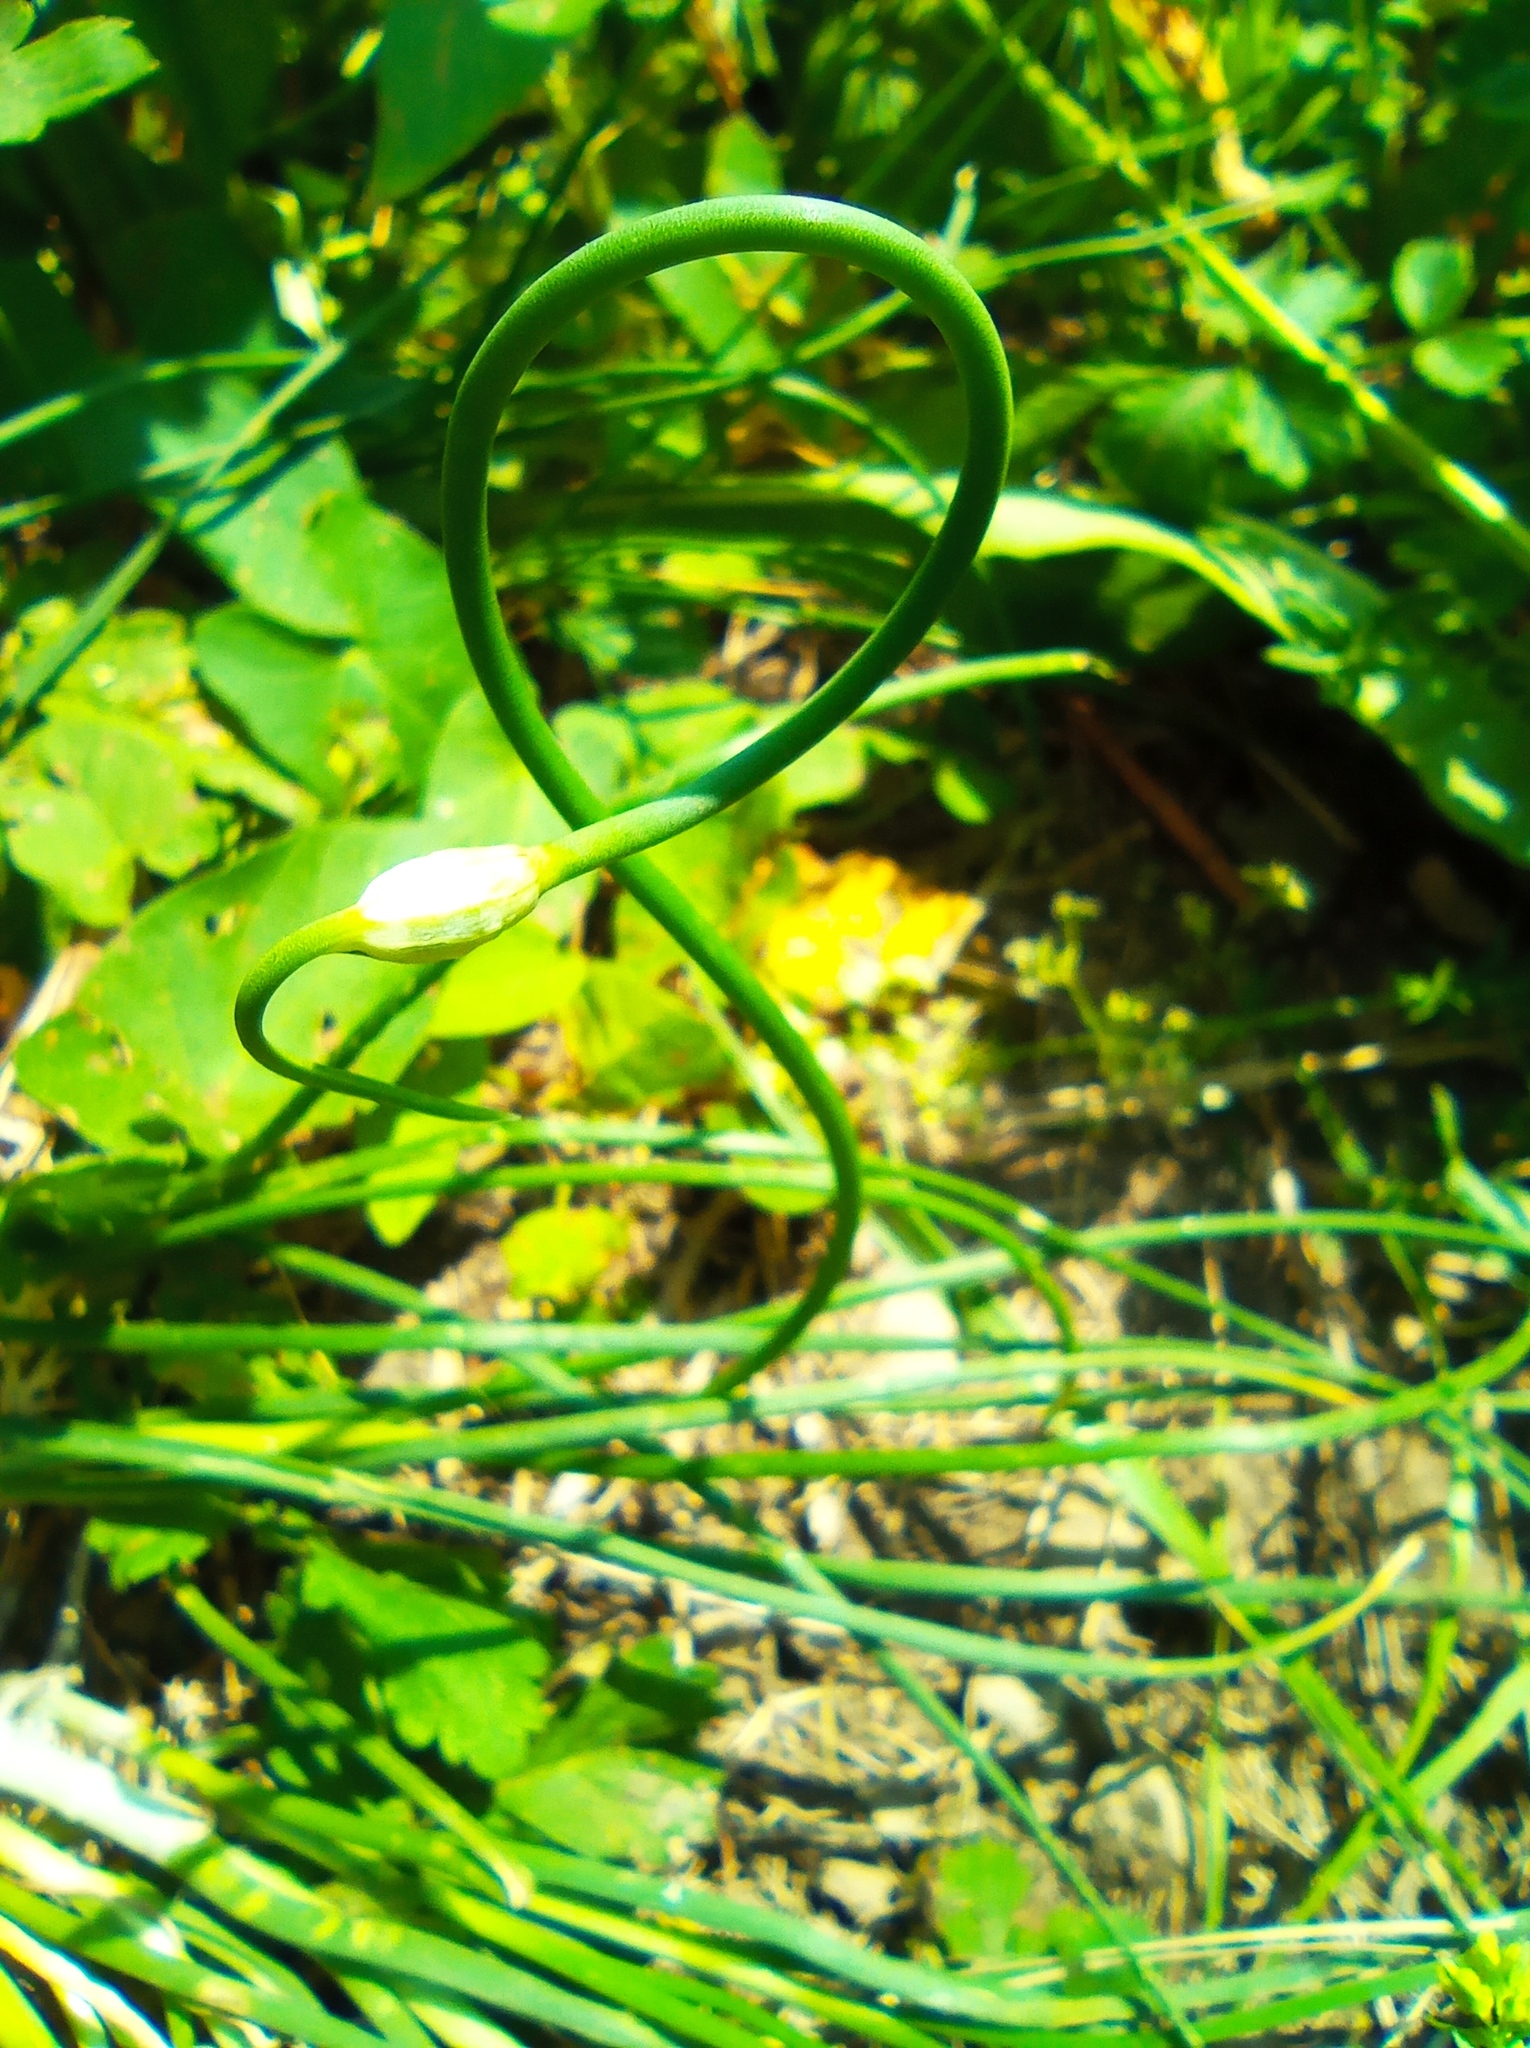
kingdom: Plantae
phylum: Tracheophyta
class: Liliopsida
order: Asparagales
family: Amaryllidaceae
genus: Allium
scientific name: Allium oleraceum
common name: Field garlic
